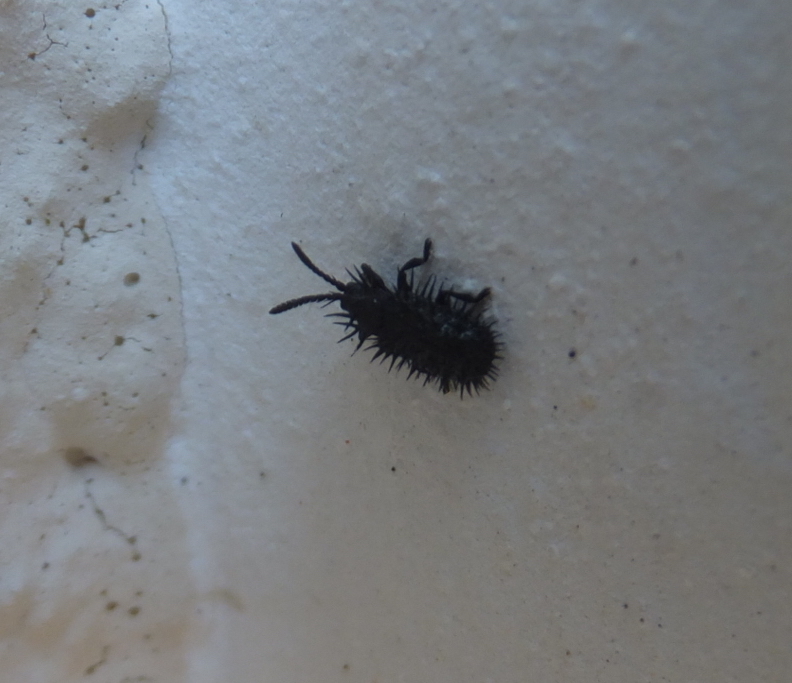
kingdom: Animalia
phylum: Arthropoda
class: Insecta
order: Coleoptera
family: Chrysomelidae
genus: Hispa
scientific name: Hispa atra
